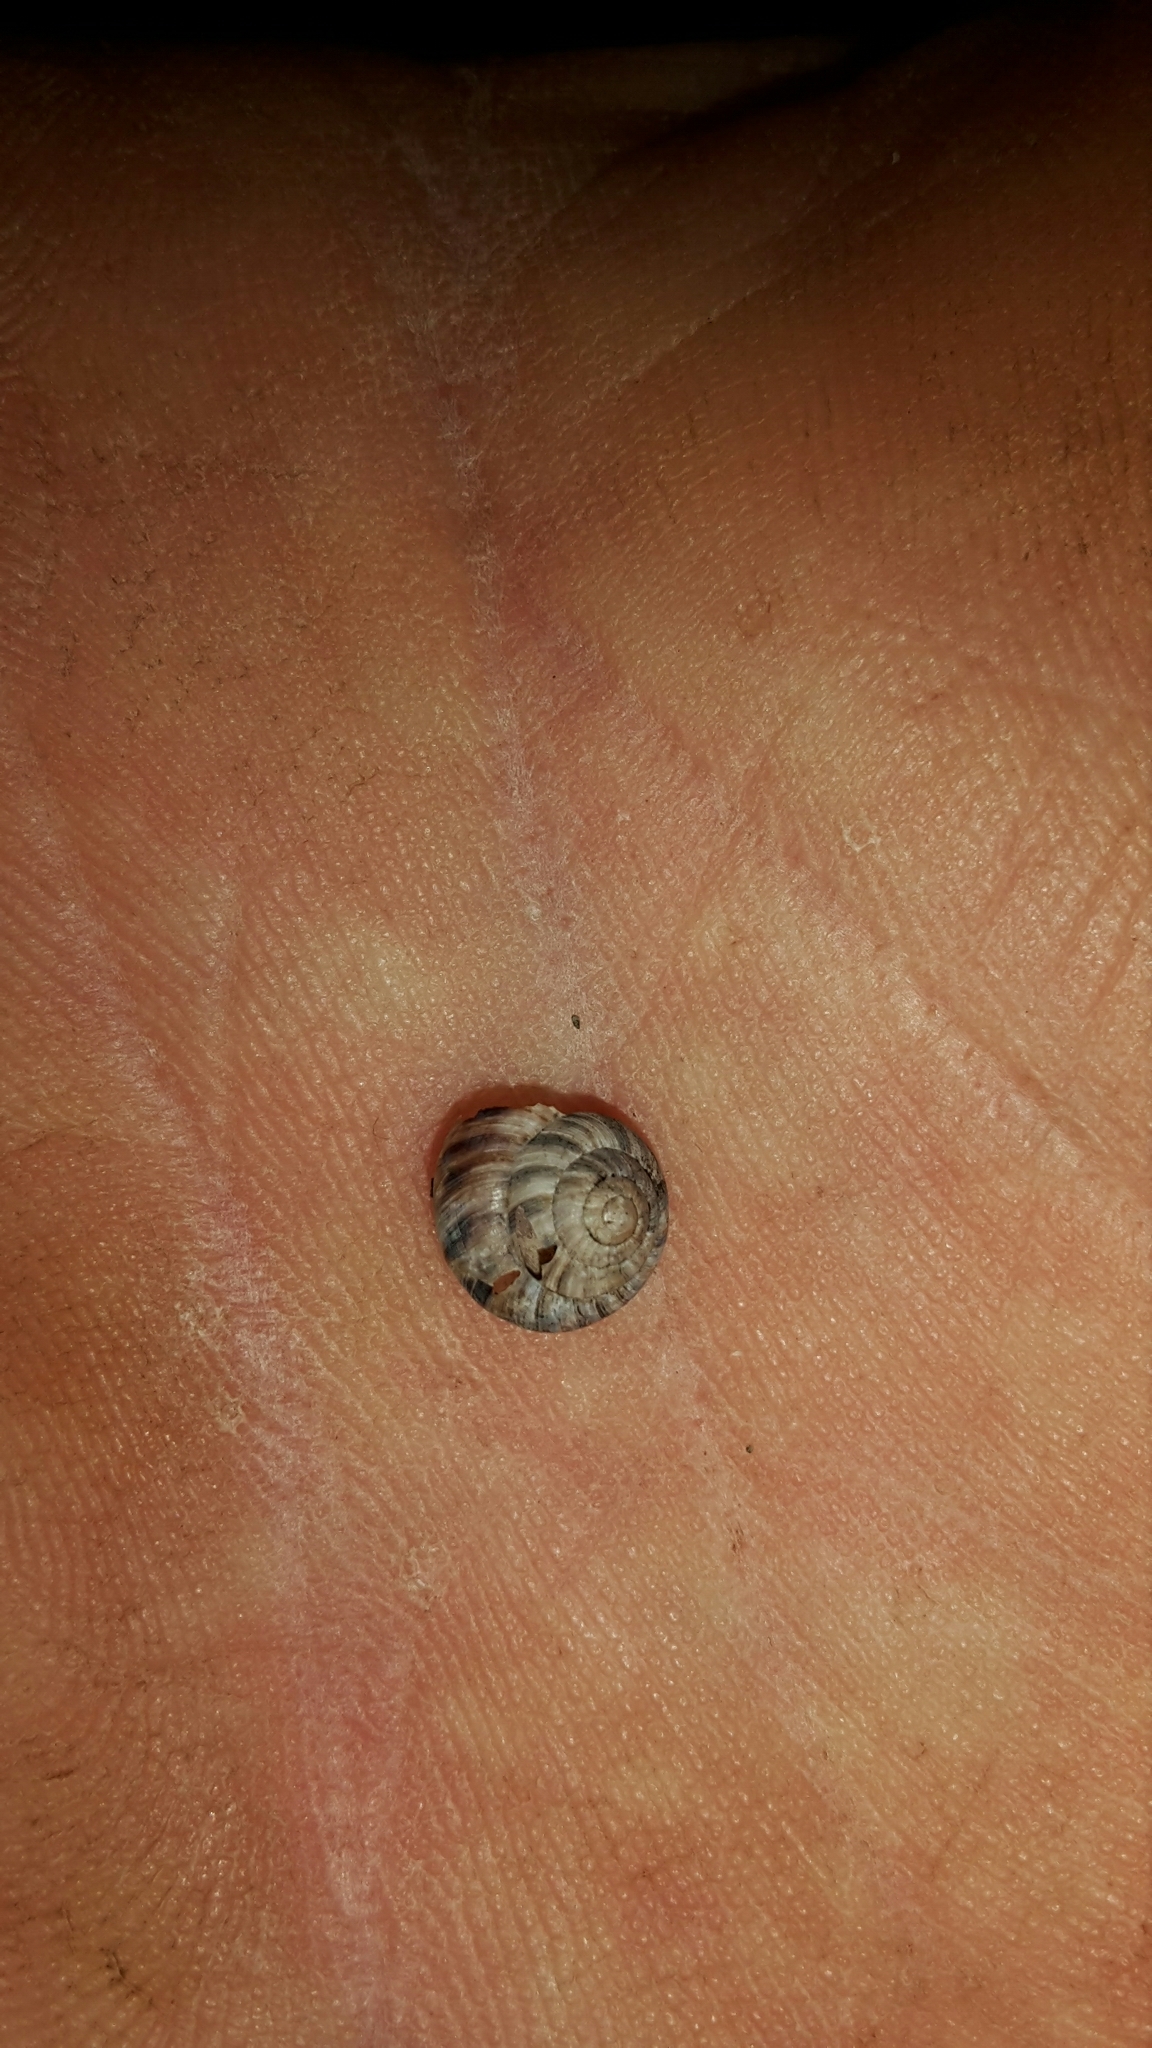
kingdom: Animalia
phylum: Mollusca
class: Gastropoda
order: Stylommatophora
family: Charopidae
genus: Serpho
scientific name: Serpho
